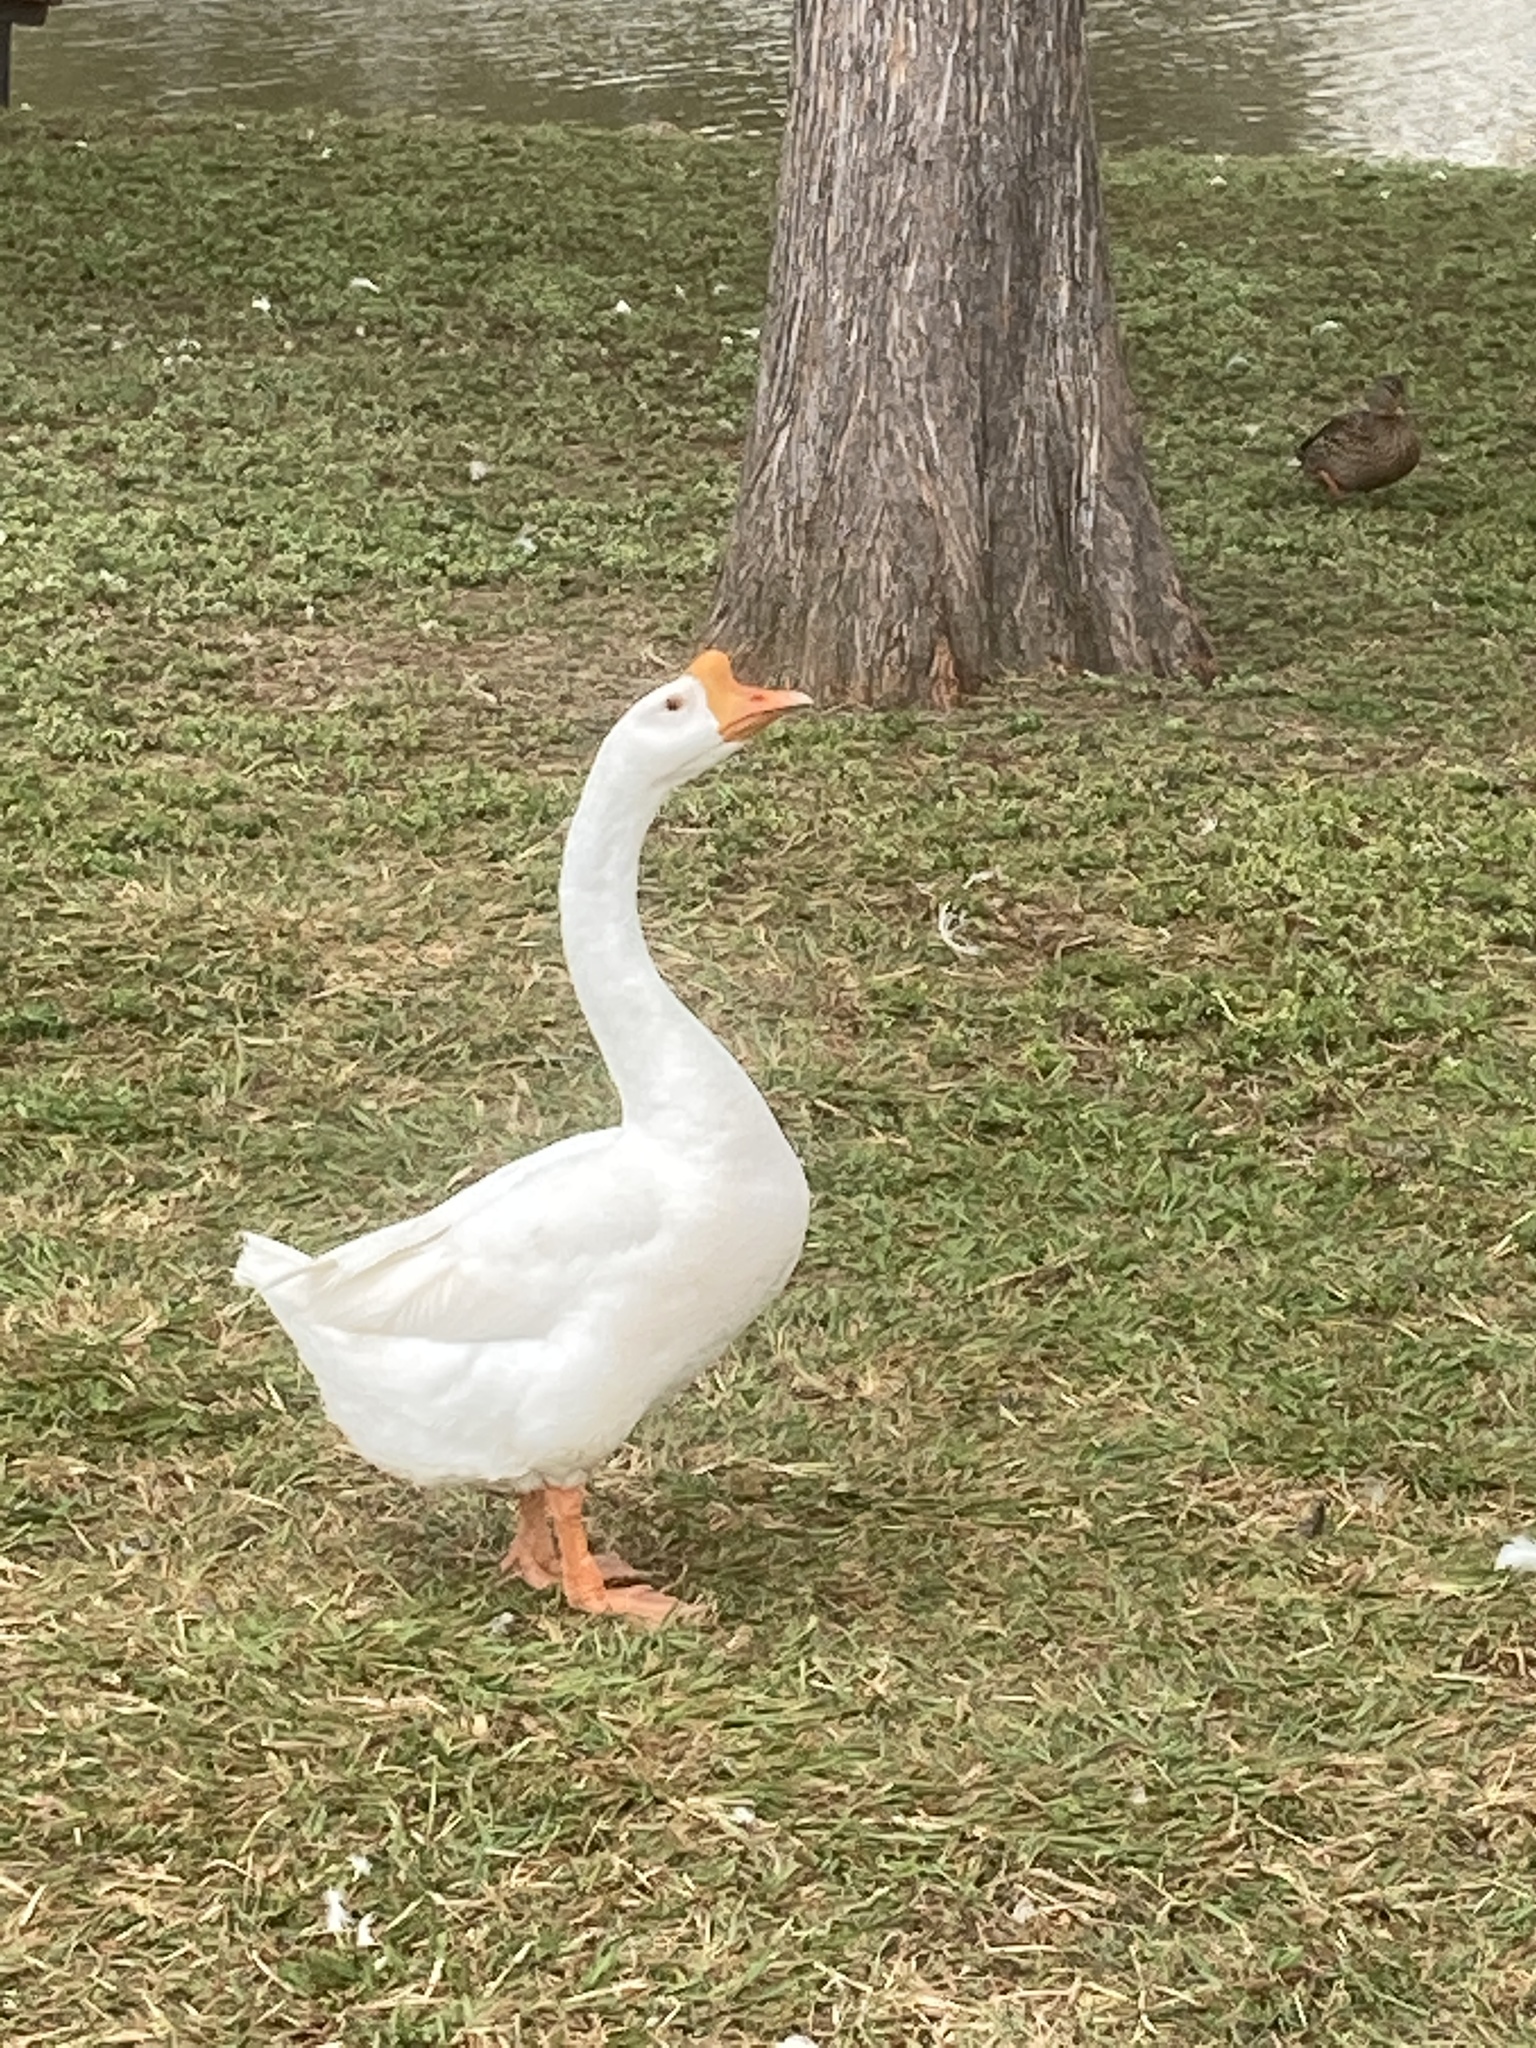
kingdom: Animalia
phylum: Chordata
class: Aves
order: Anseriformes
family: Anatidae
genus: Anser
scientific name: Anser cygnoides
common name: Swan goose
